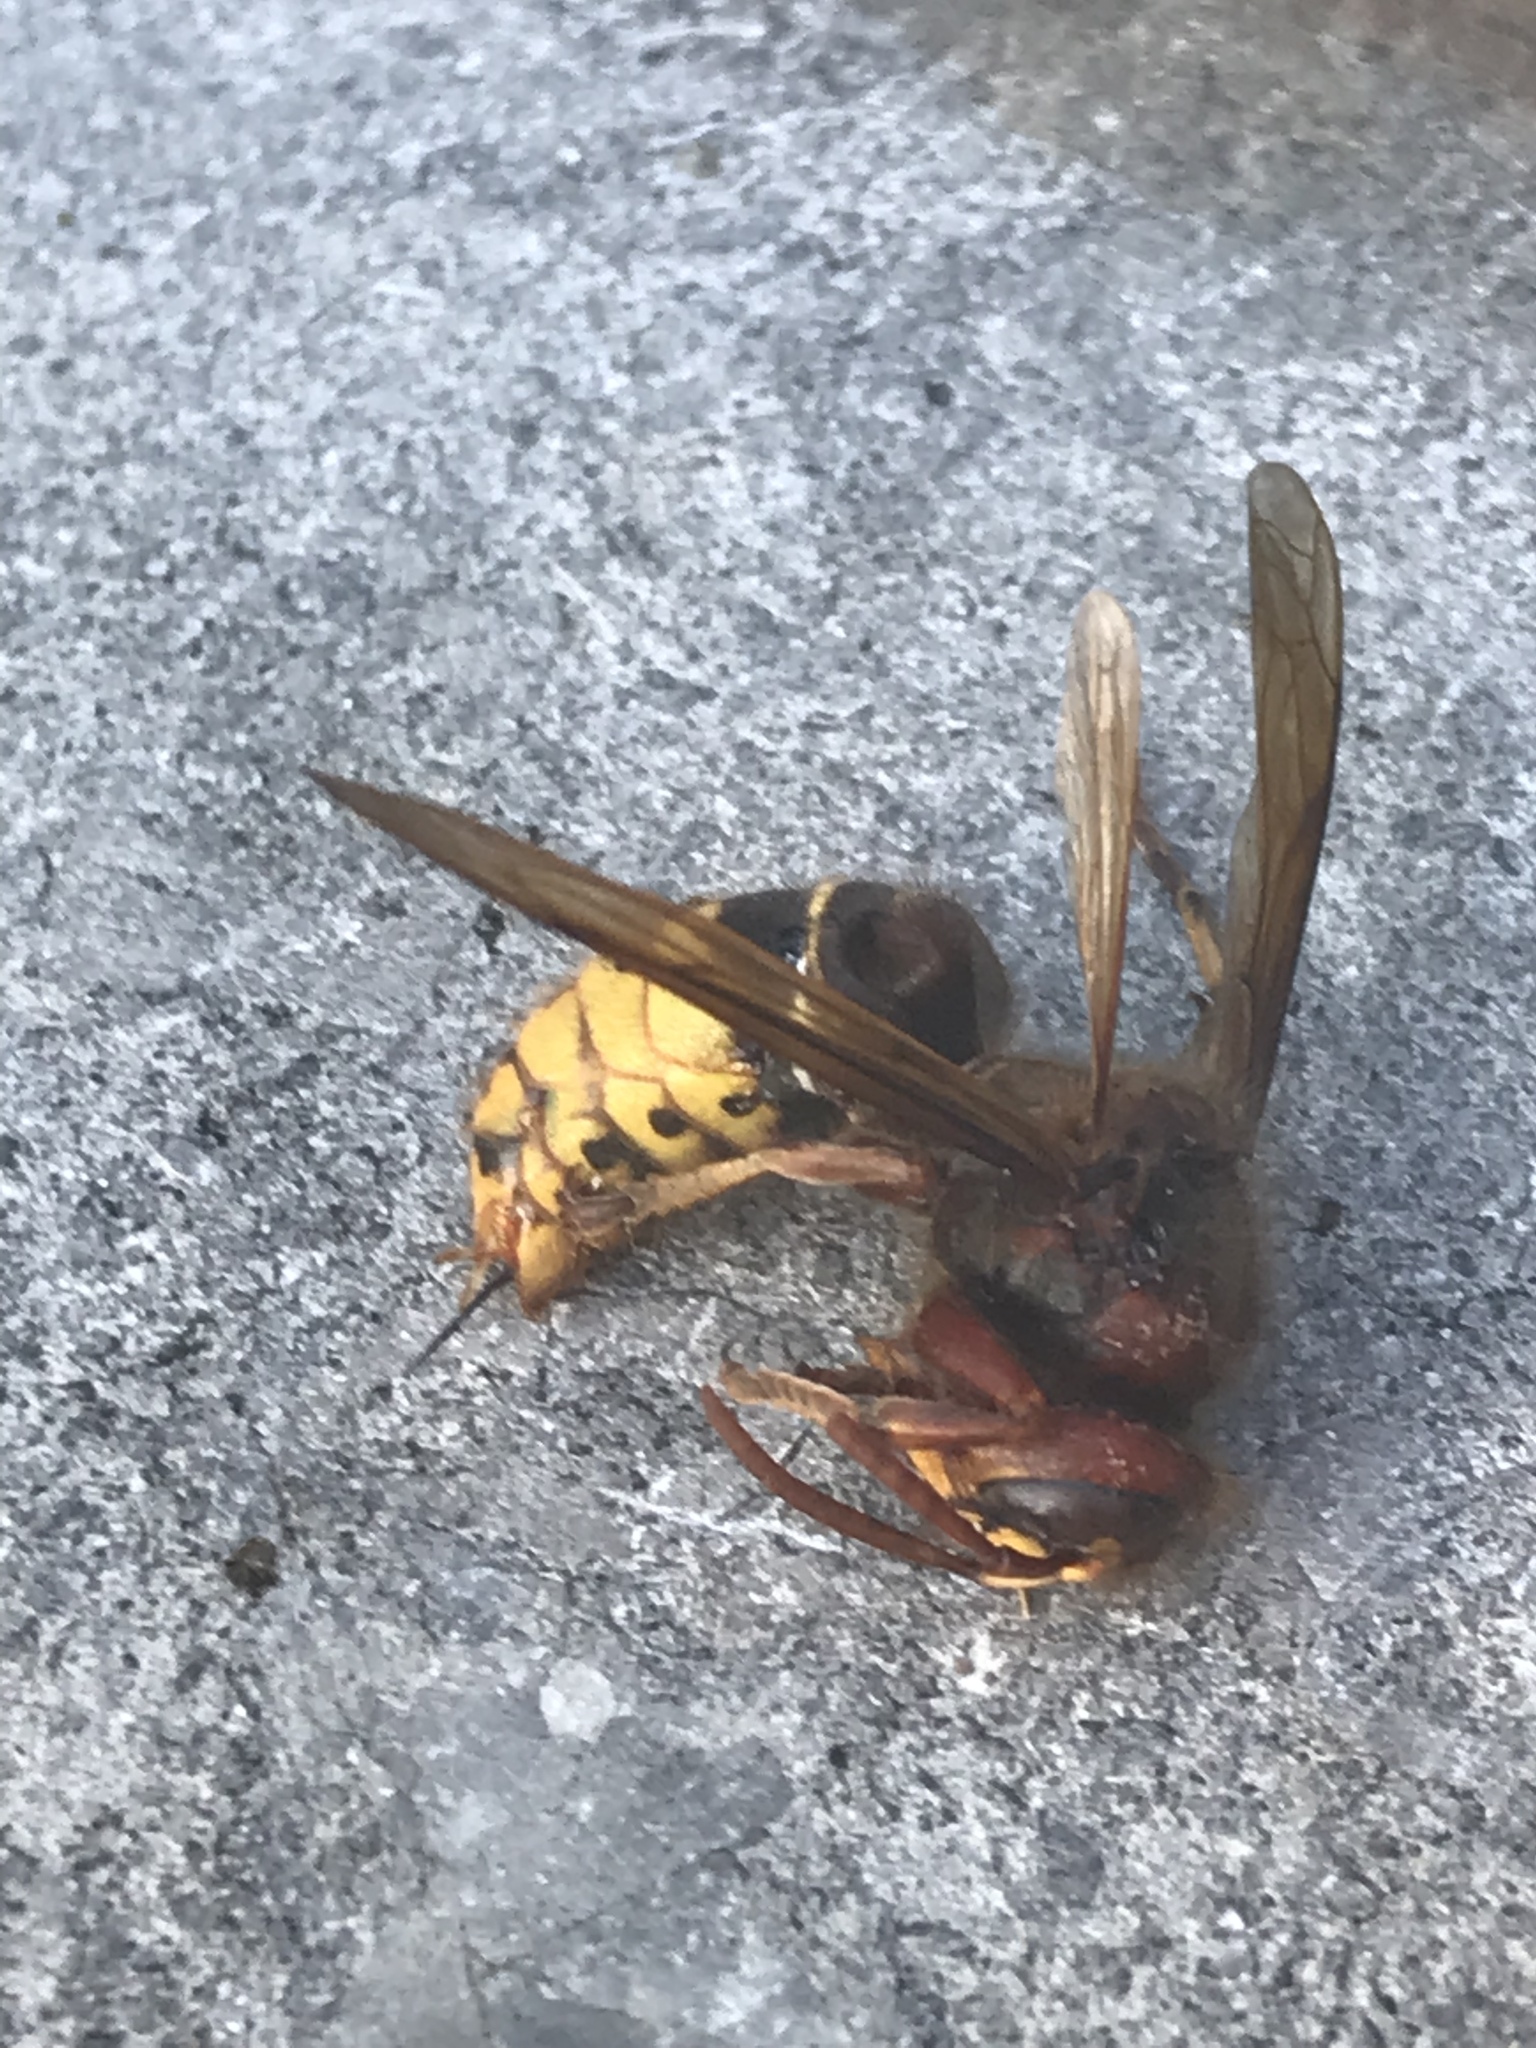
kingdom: Animalia
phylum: Arthropoda
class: Insecta
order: Hymenoptera
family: Vespidae
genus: Vespa
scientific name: Vespa crabro
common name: Hornet
